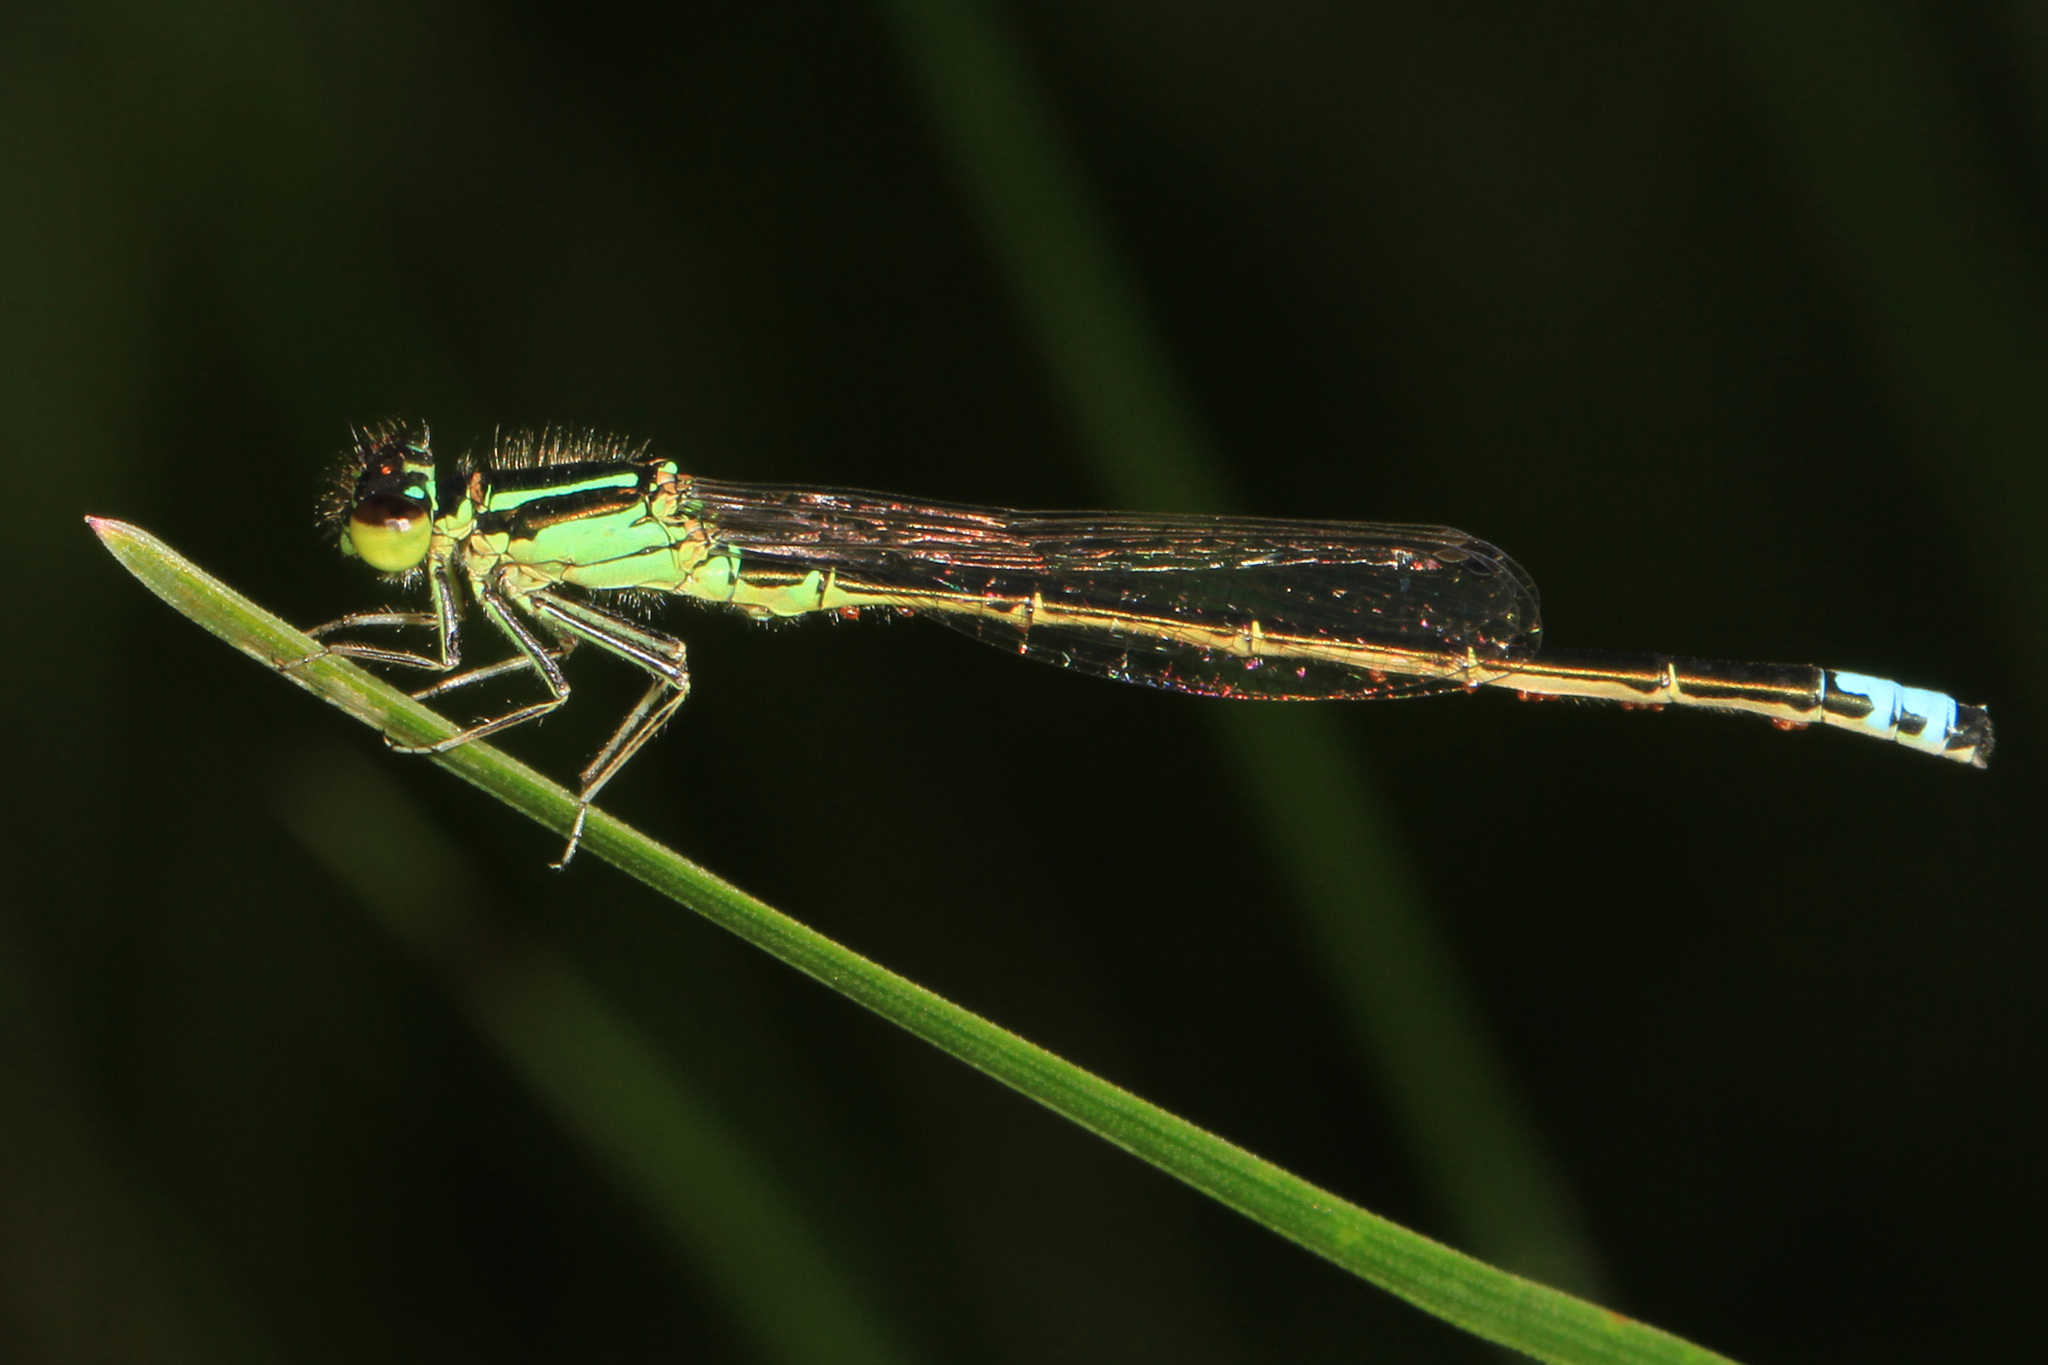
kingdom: Animalia
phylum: Arthropoda
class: Insecta
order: Odonata
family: Coenagrionidae
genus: Ischnura
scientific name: Ischnura verticalis
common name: Eastern forktail
